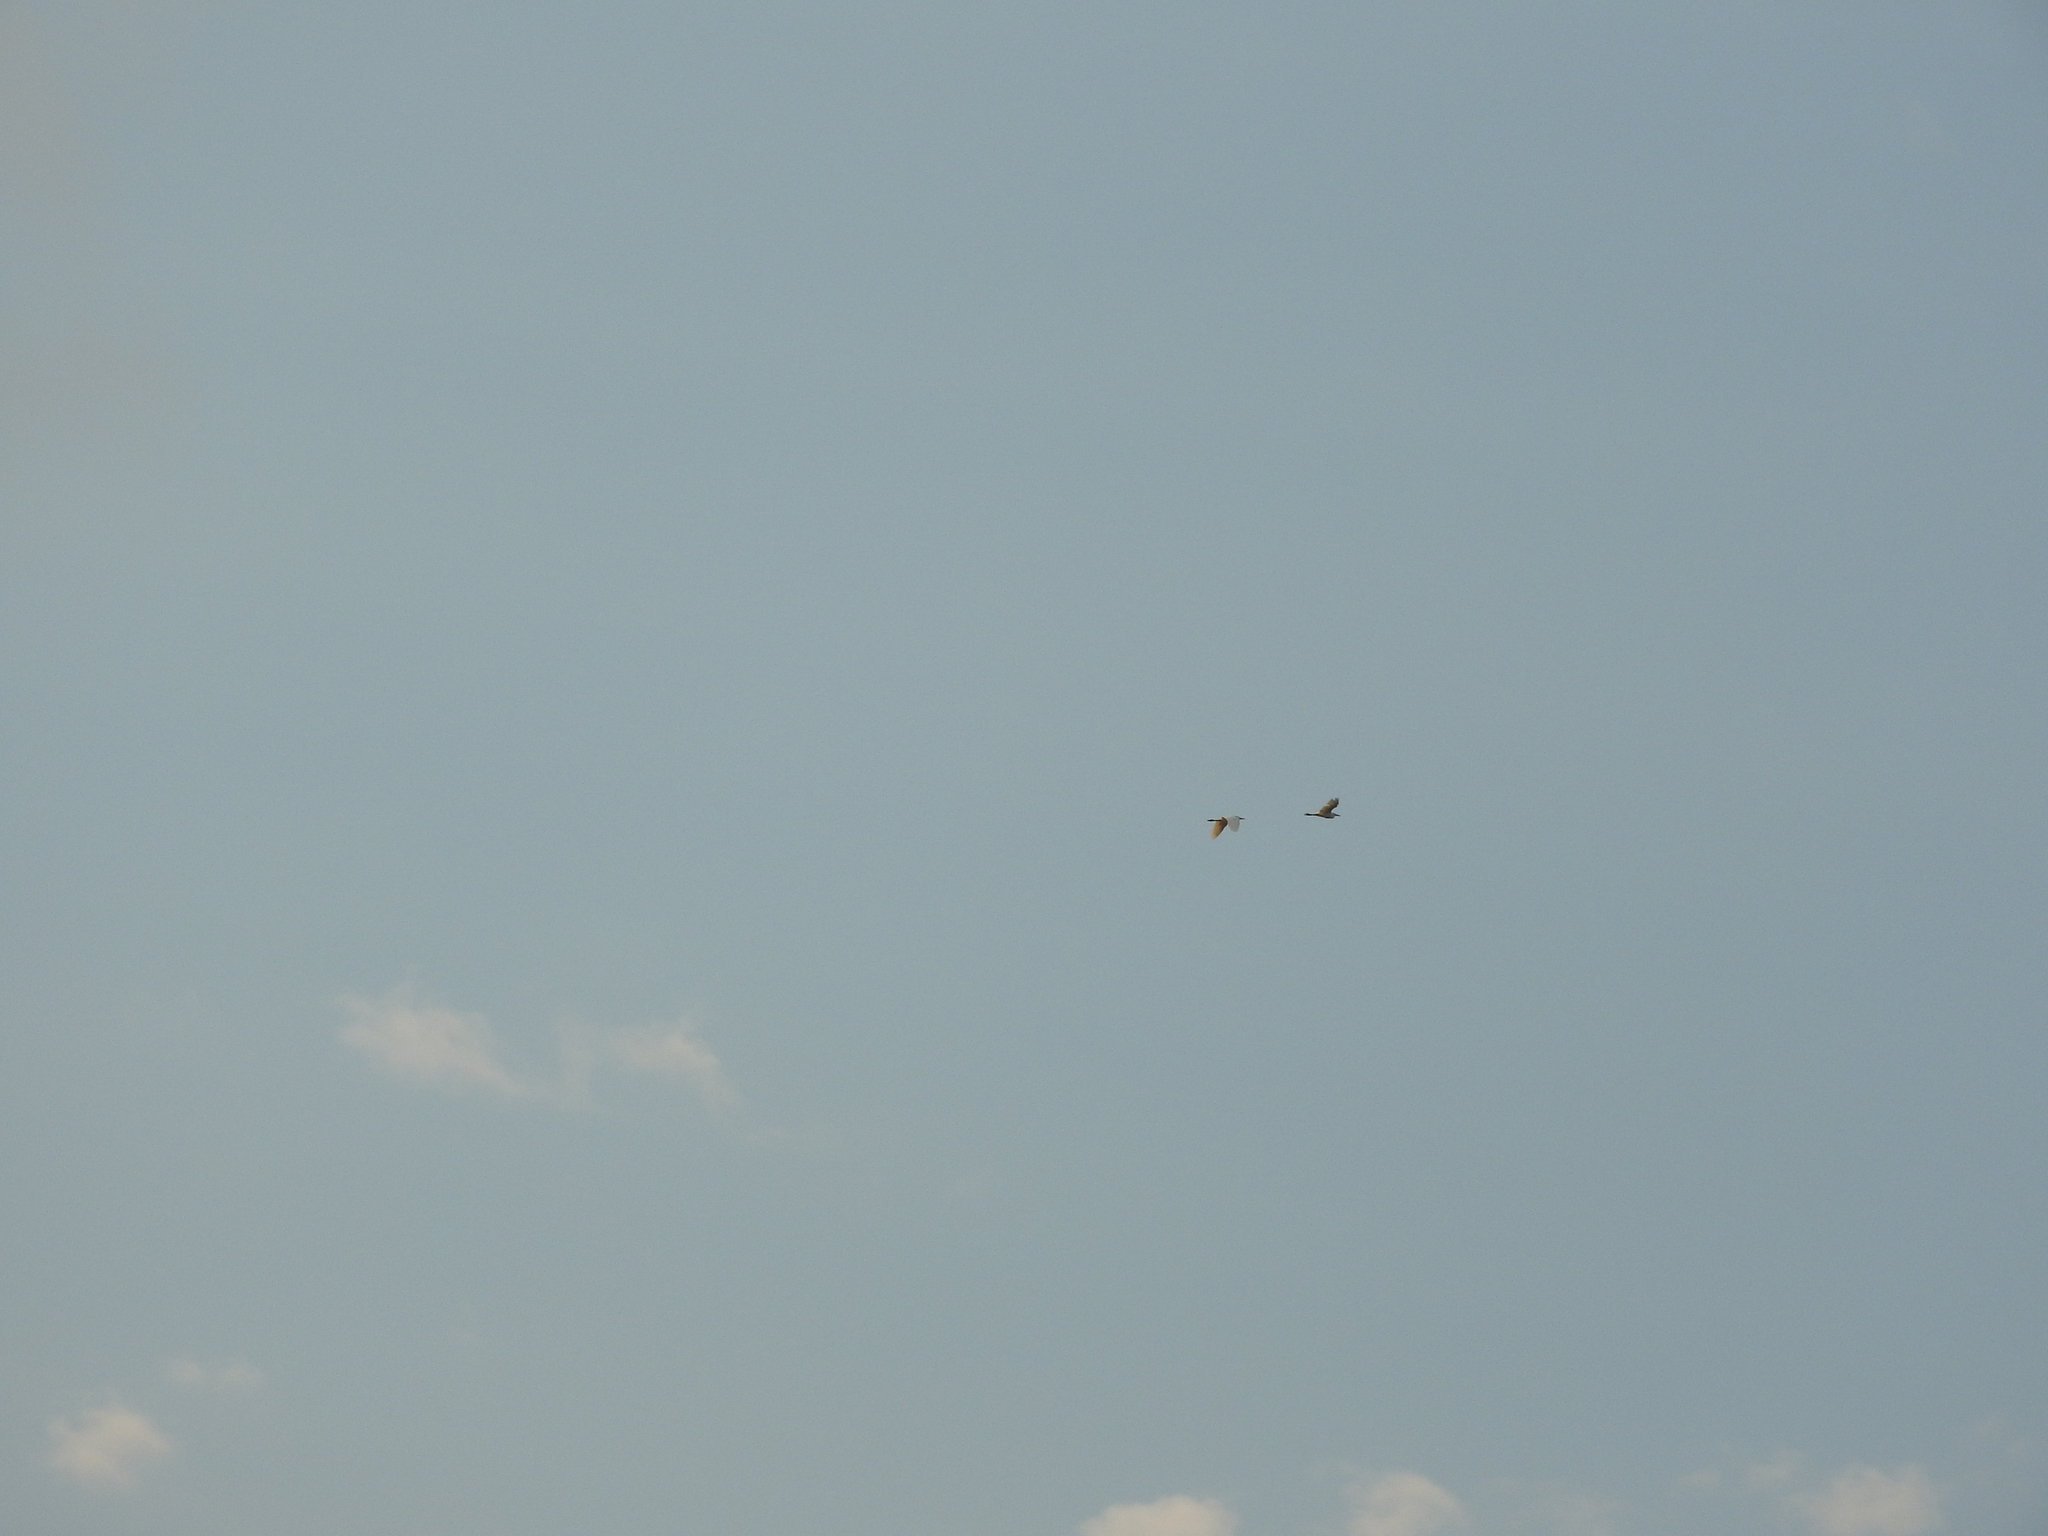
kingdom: Animalia
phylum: Chordata
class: Aves
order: Pelecaniformes
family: Ardeidae
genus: Bubulcus
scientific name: Bubulcus ibis
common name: Cattle egret
